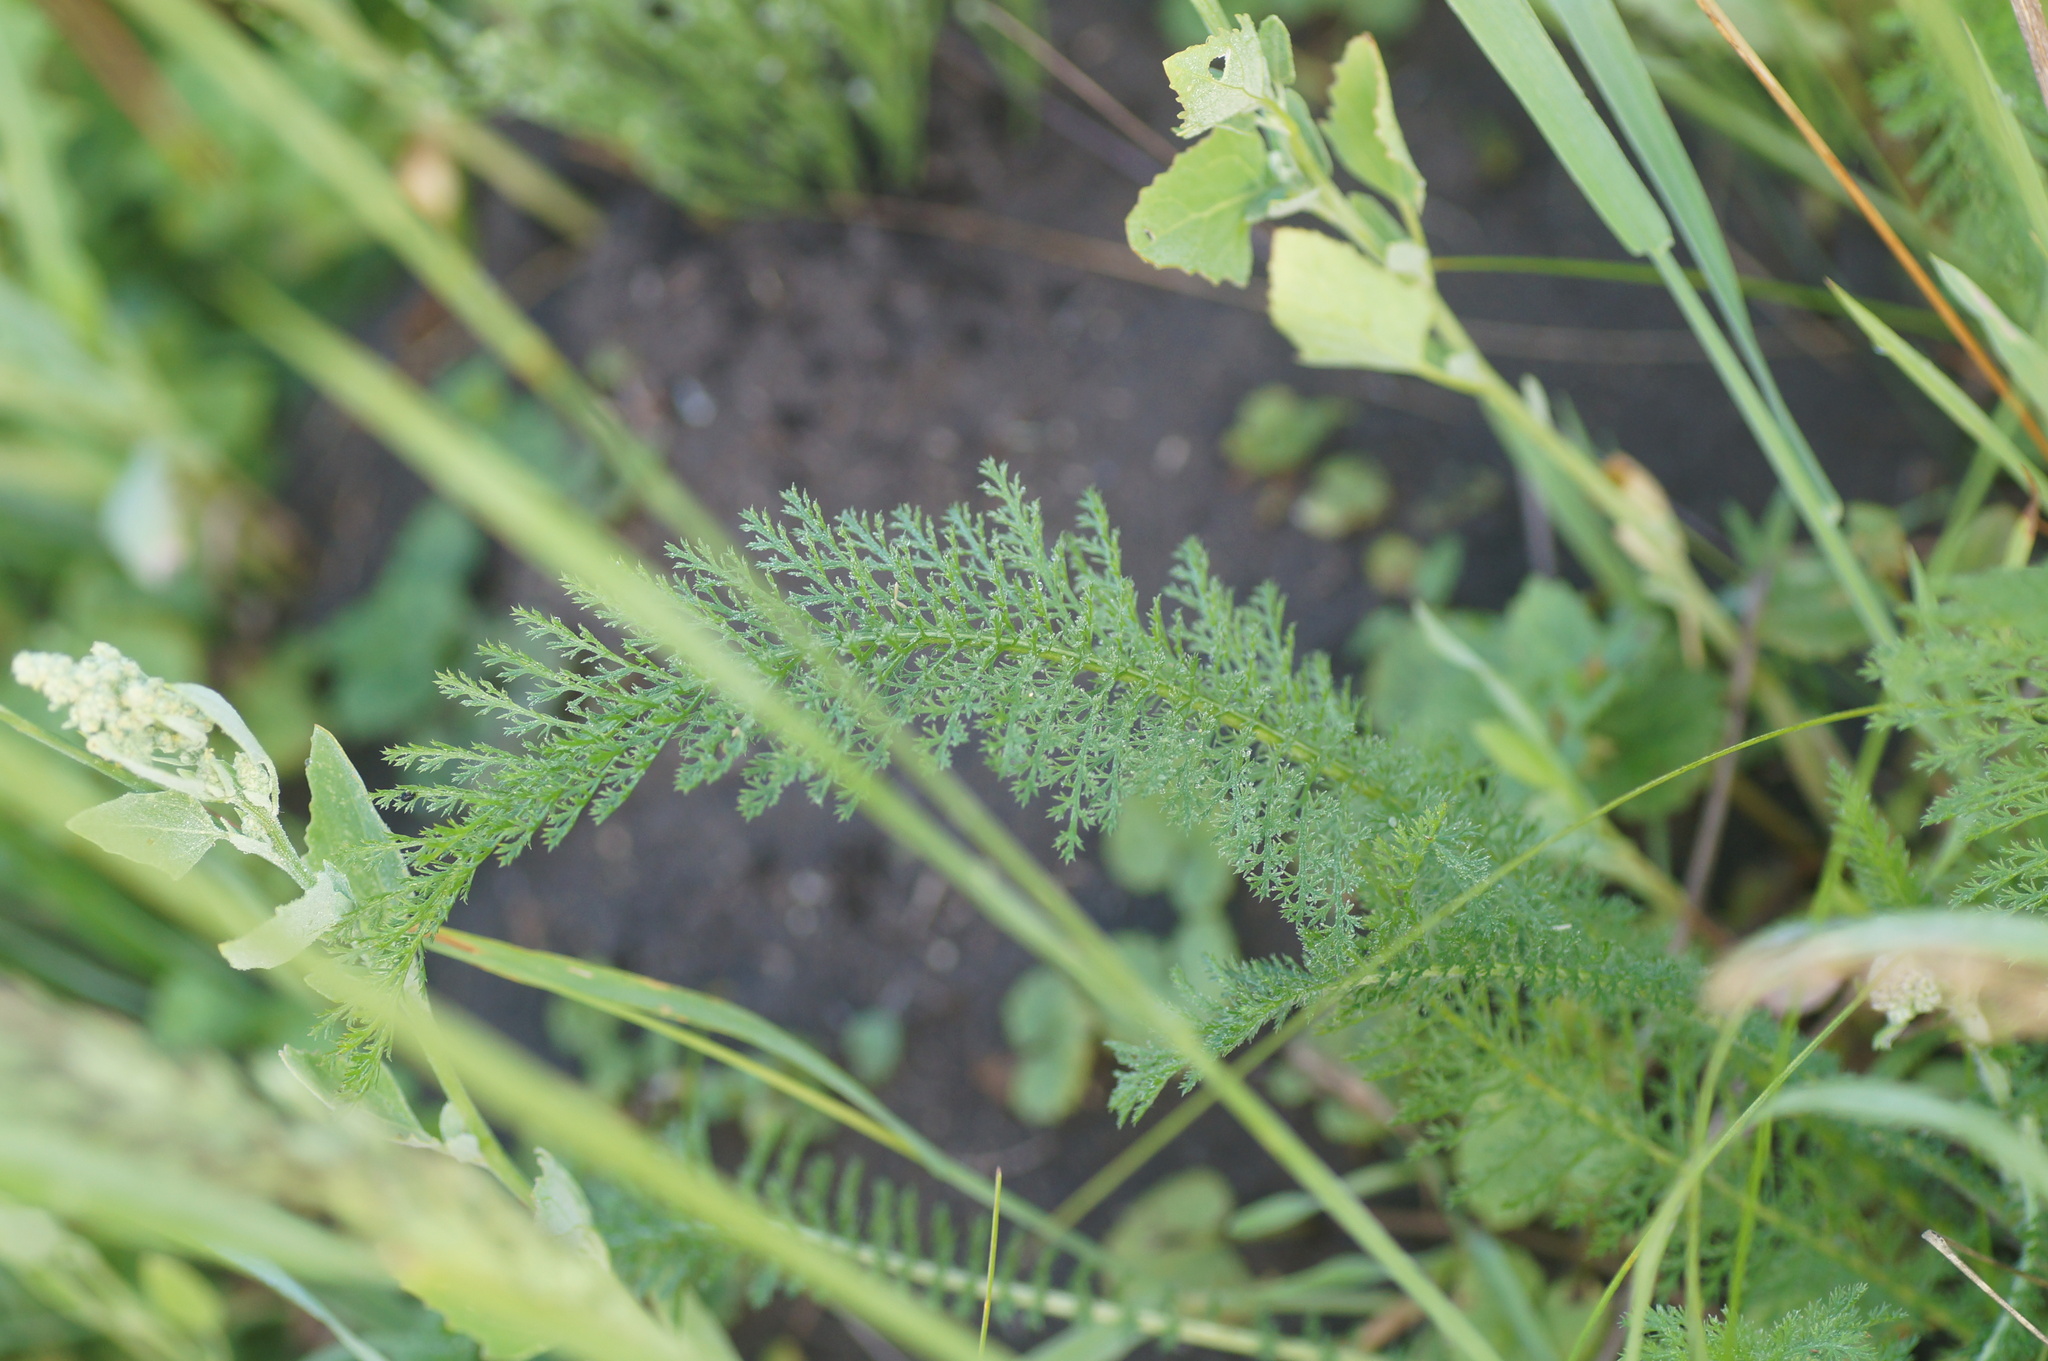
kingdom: Plantae
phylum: Tracheophyta
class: Magnoliopsida
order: Asterales
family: Asteraceae
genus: Achillea
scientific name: Achillea millefolium
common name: Yarrow
